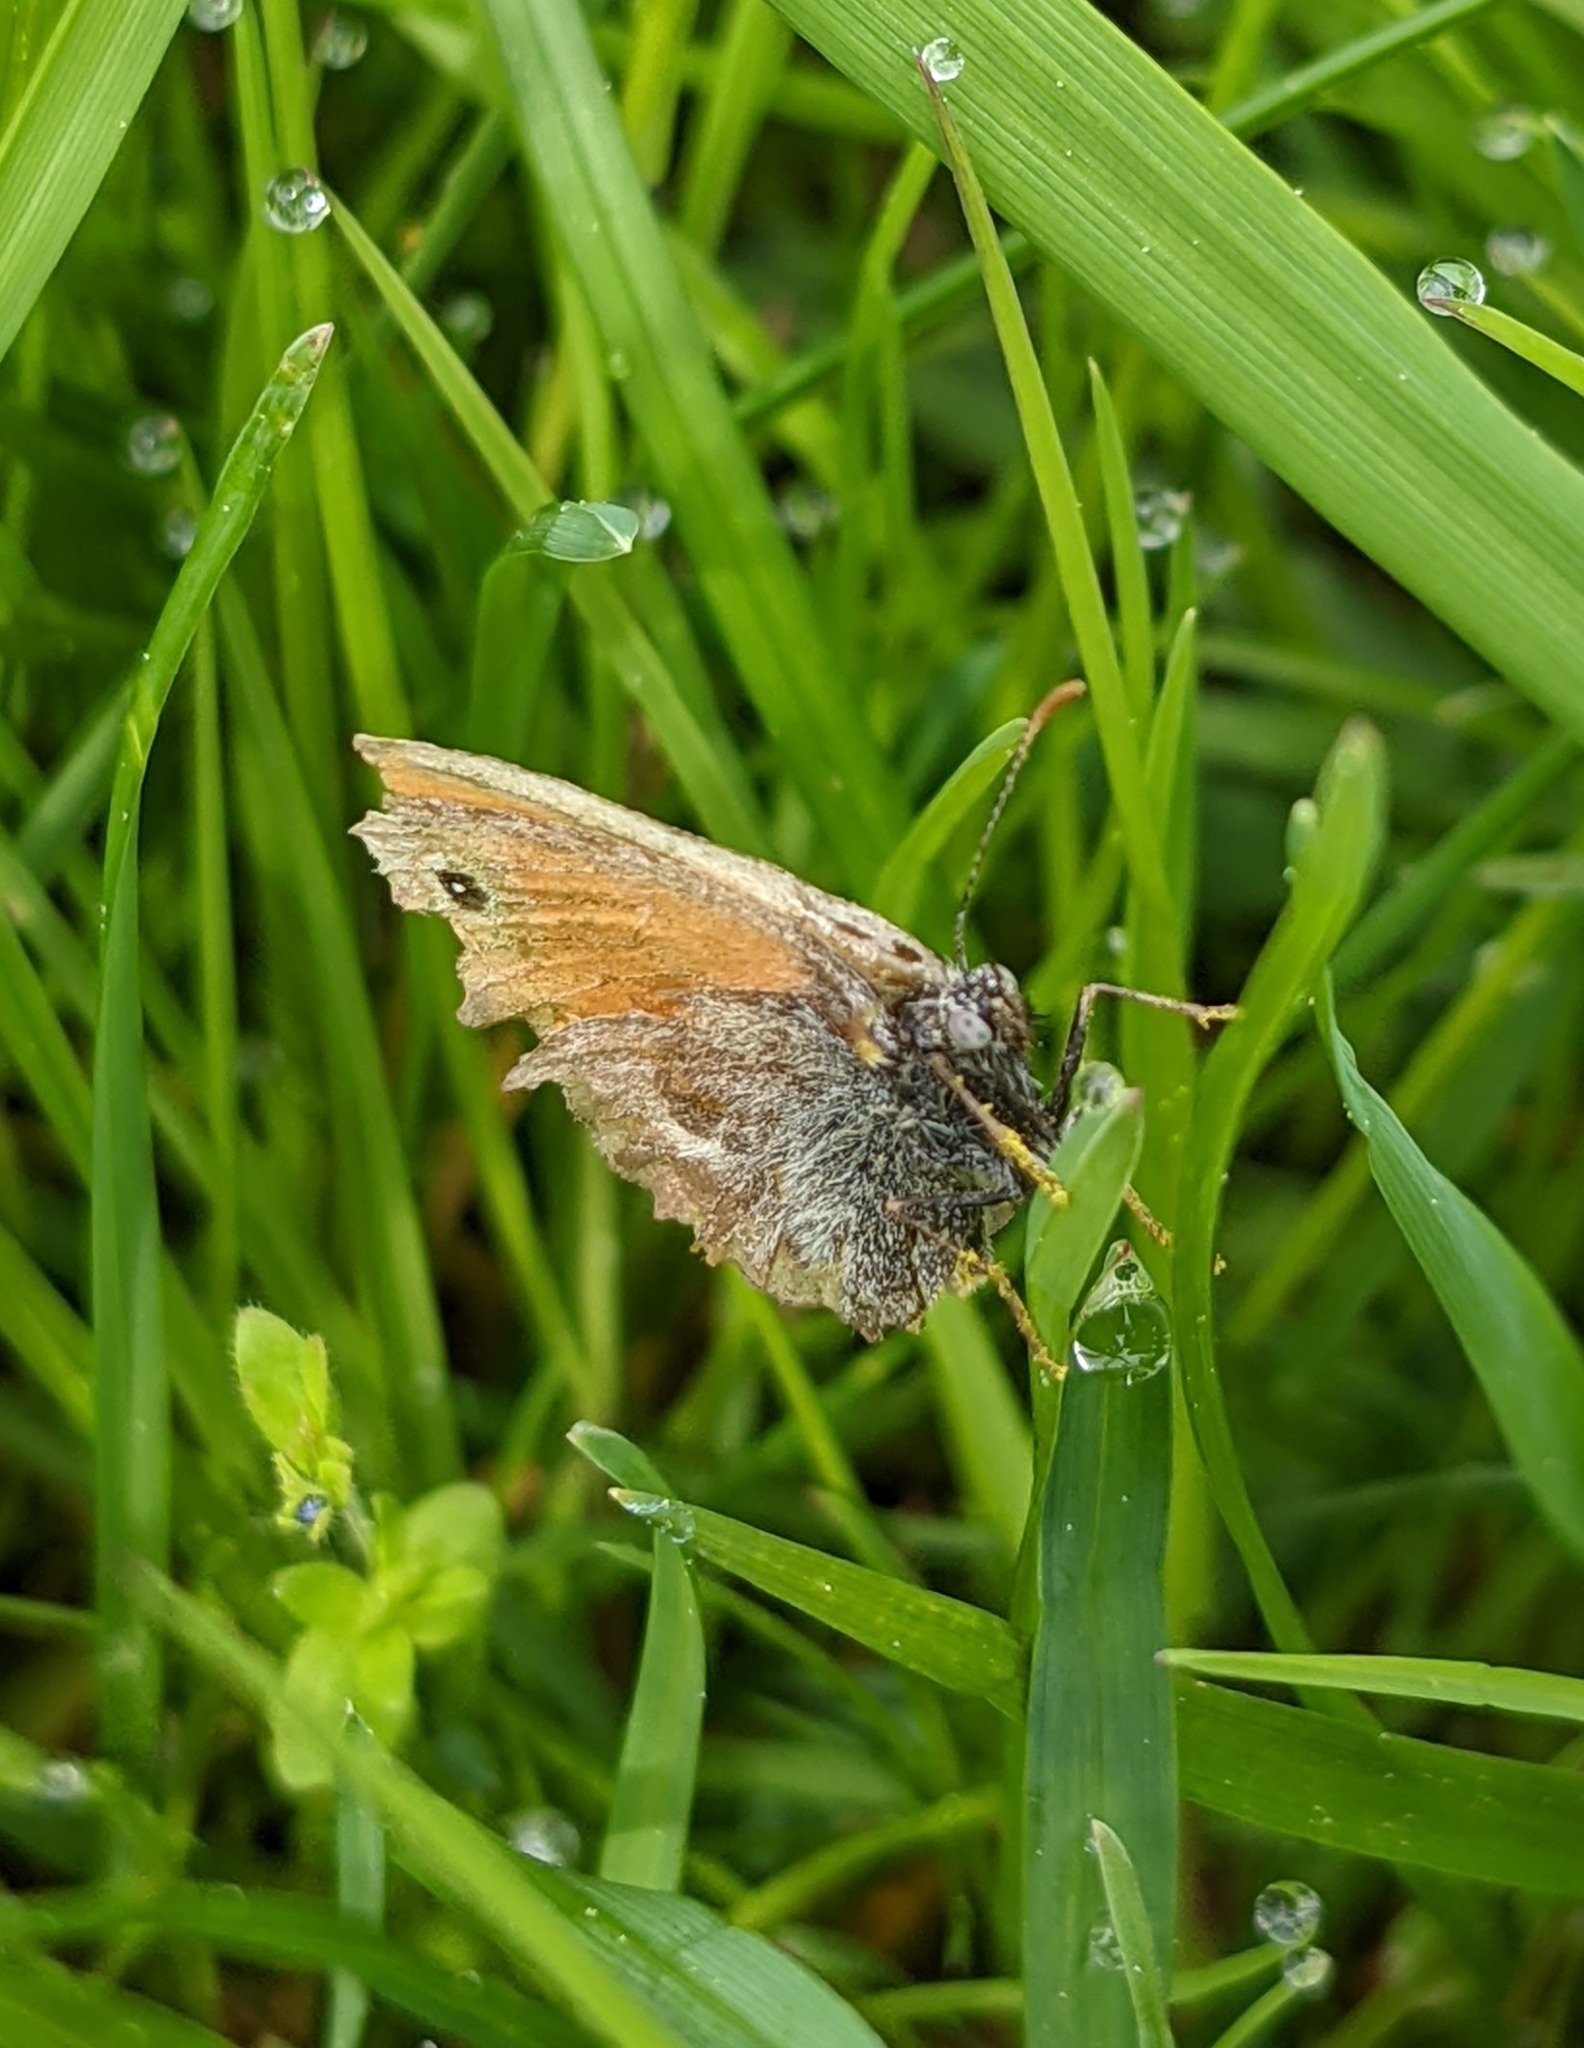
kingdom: Animalia
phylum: Arthropoda
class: Insecta
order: Lepidoptera
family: Nymphalidae
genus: Coenonympha
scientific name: Coenonympha pamphilus
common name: Small heath
